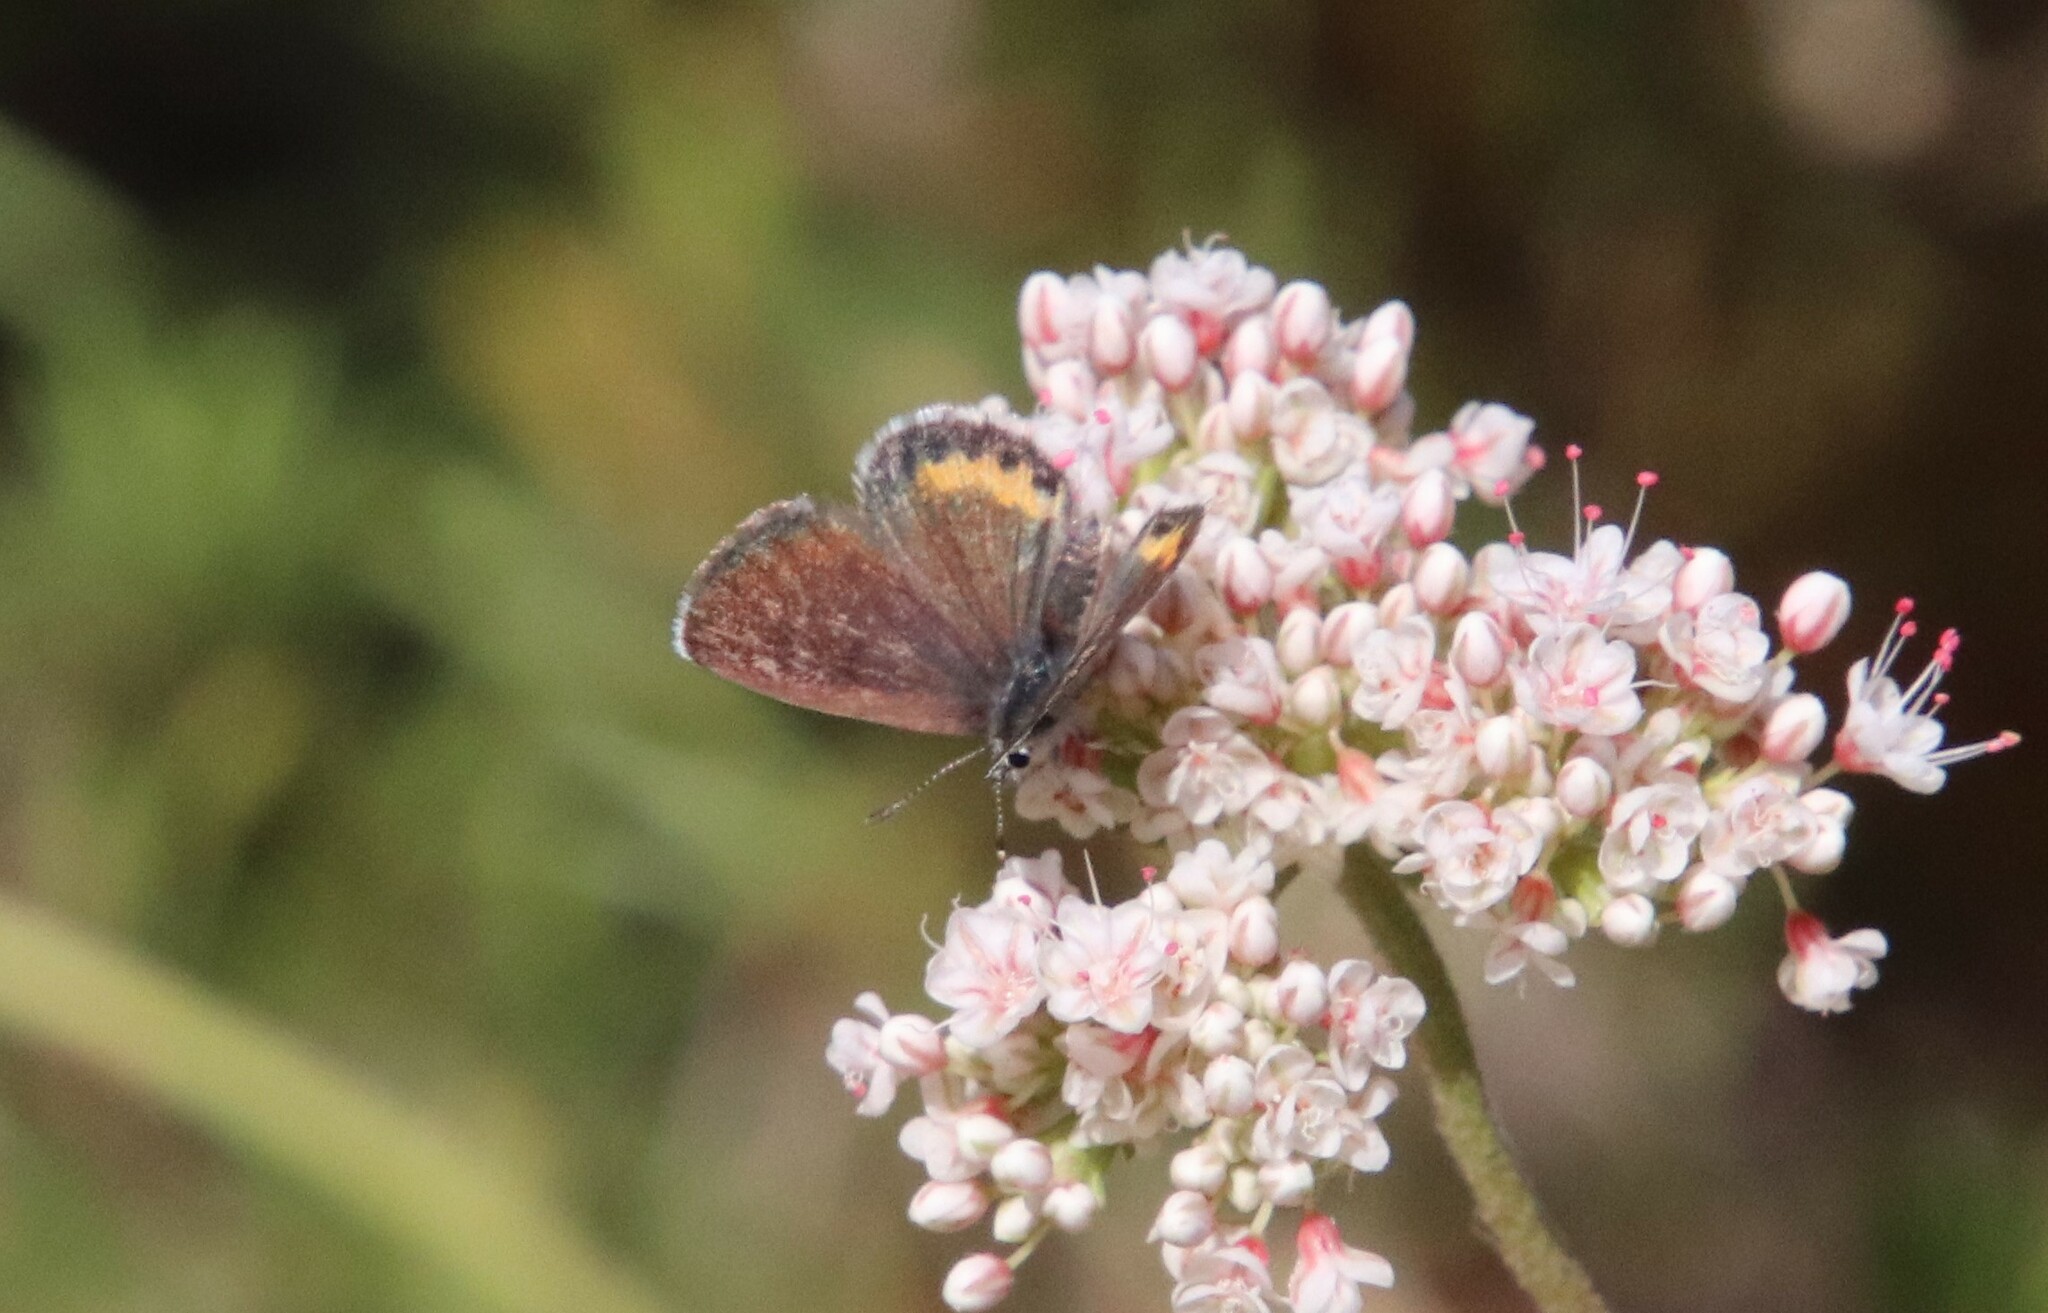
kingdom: Animalia
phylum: Arthropoda
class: Insecta
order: Lepidoptera
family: Lycaenidae
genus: Philotes
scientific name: Philotes bernardino
